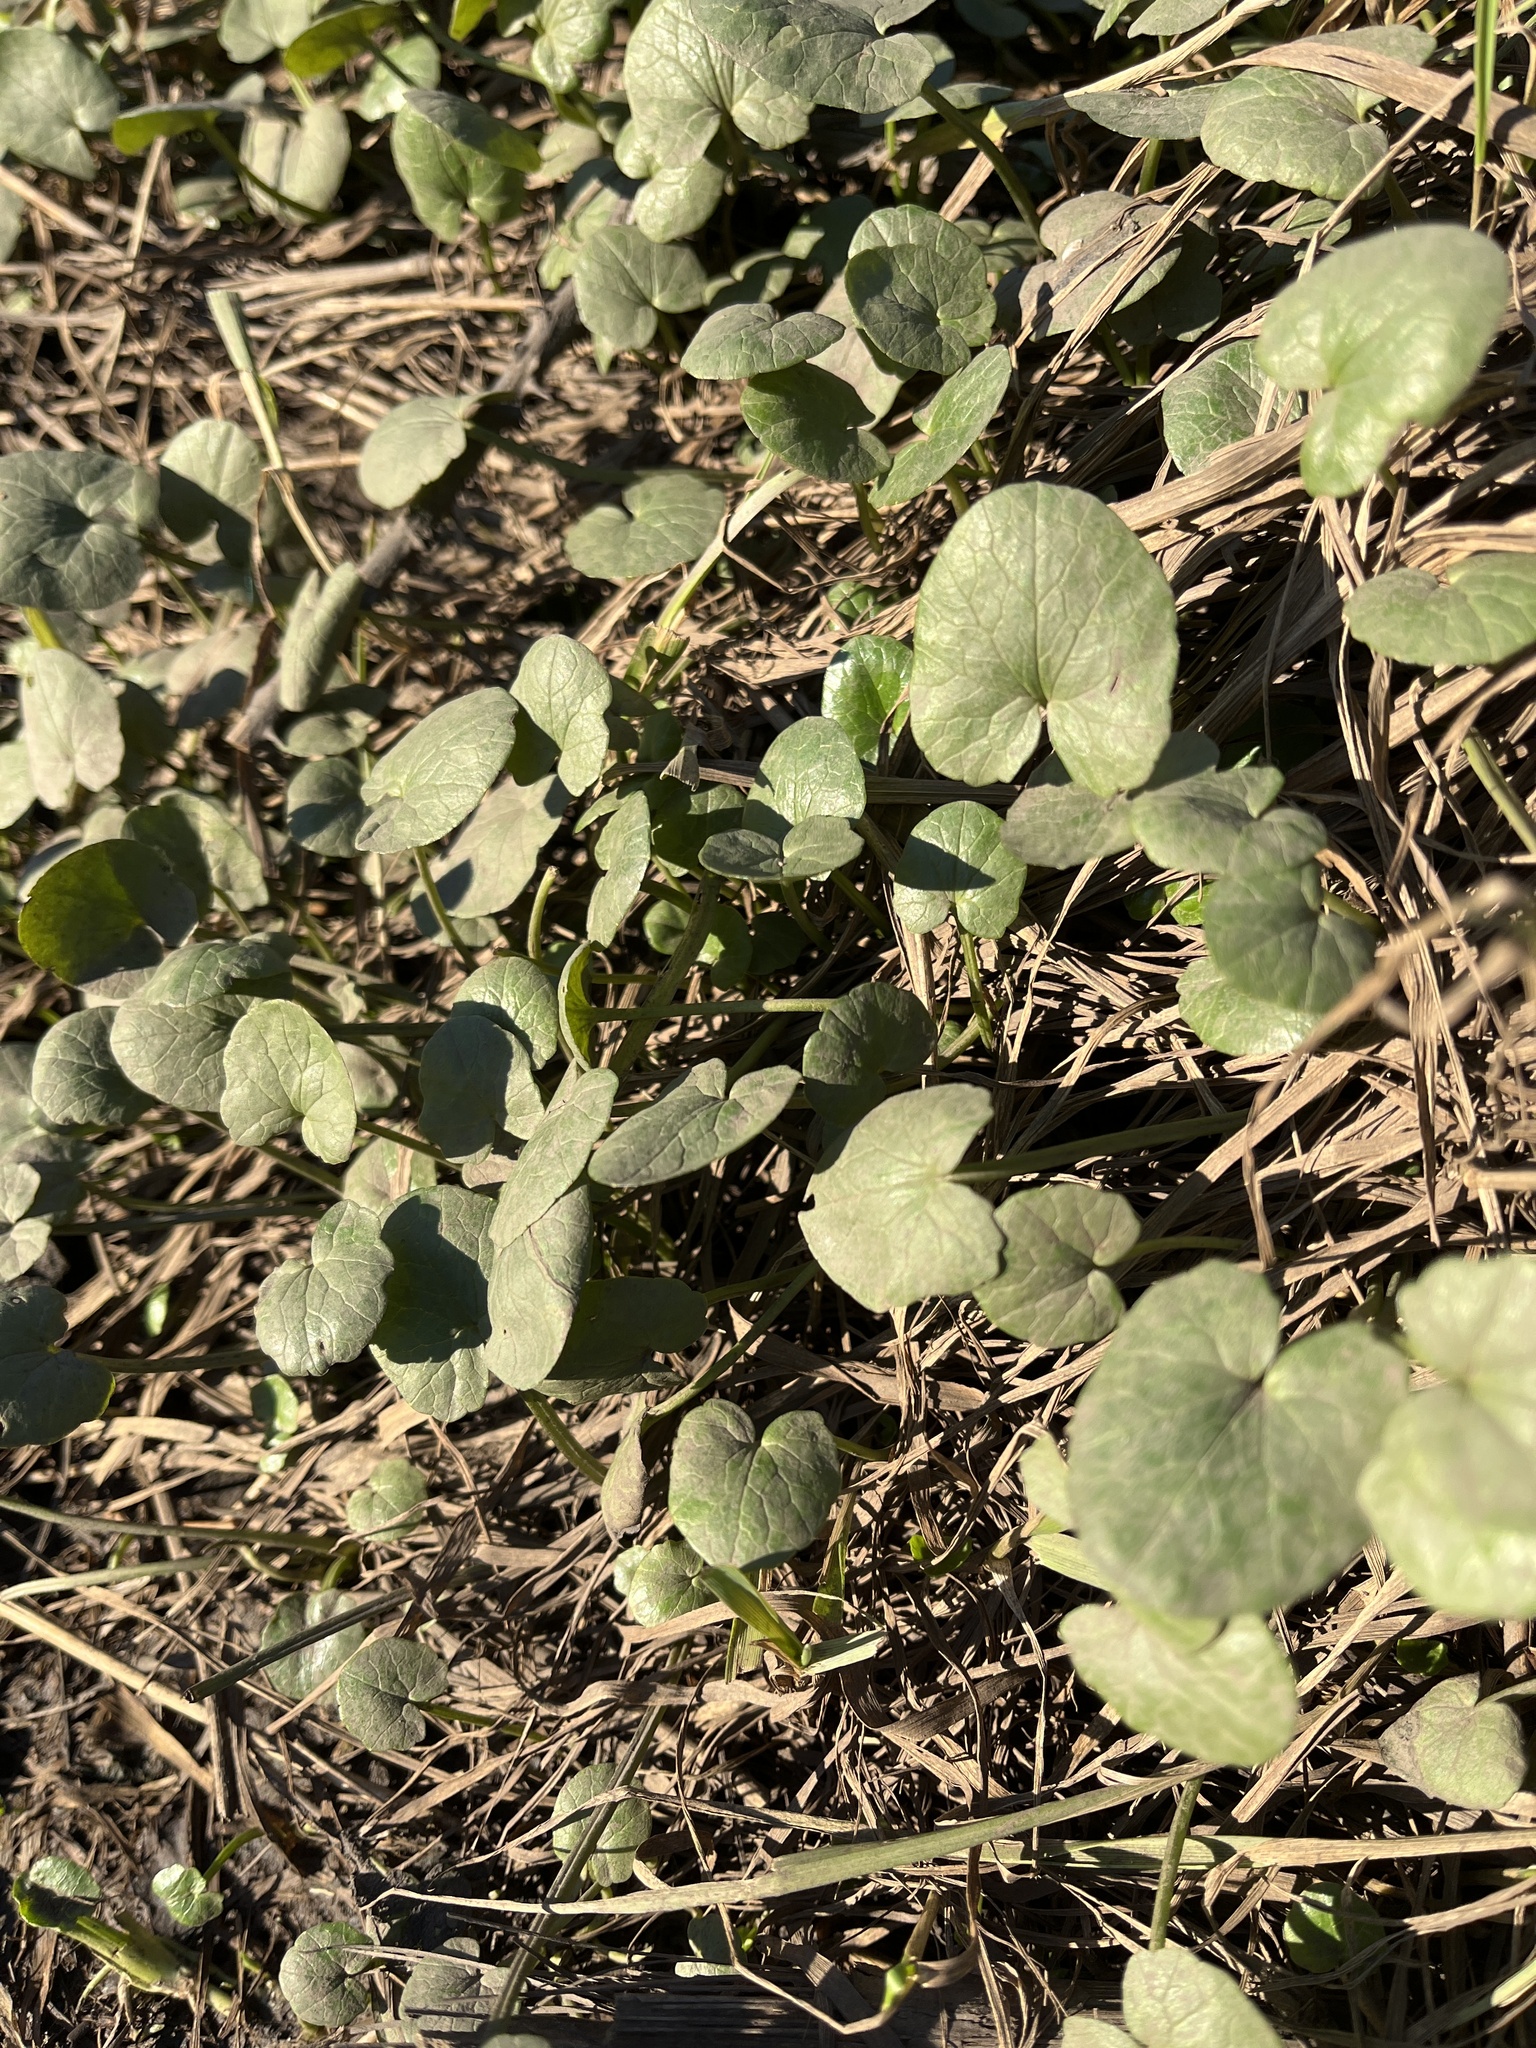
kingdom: Plantae
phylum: Tracheophyta
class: Magnoliopsida
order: Ranunculales
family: Ranunculaceae
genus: Ficaria
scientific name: Ficaria verna
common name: Lesser celandine
